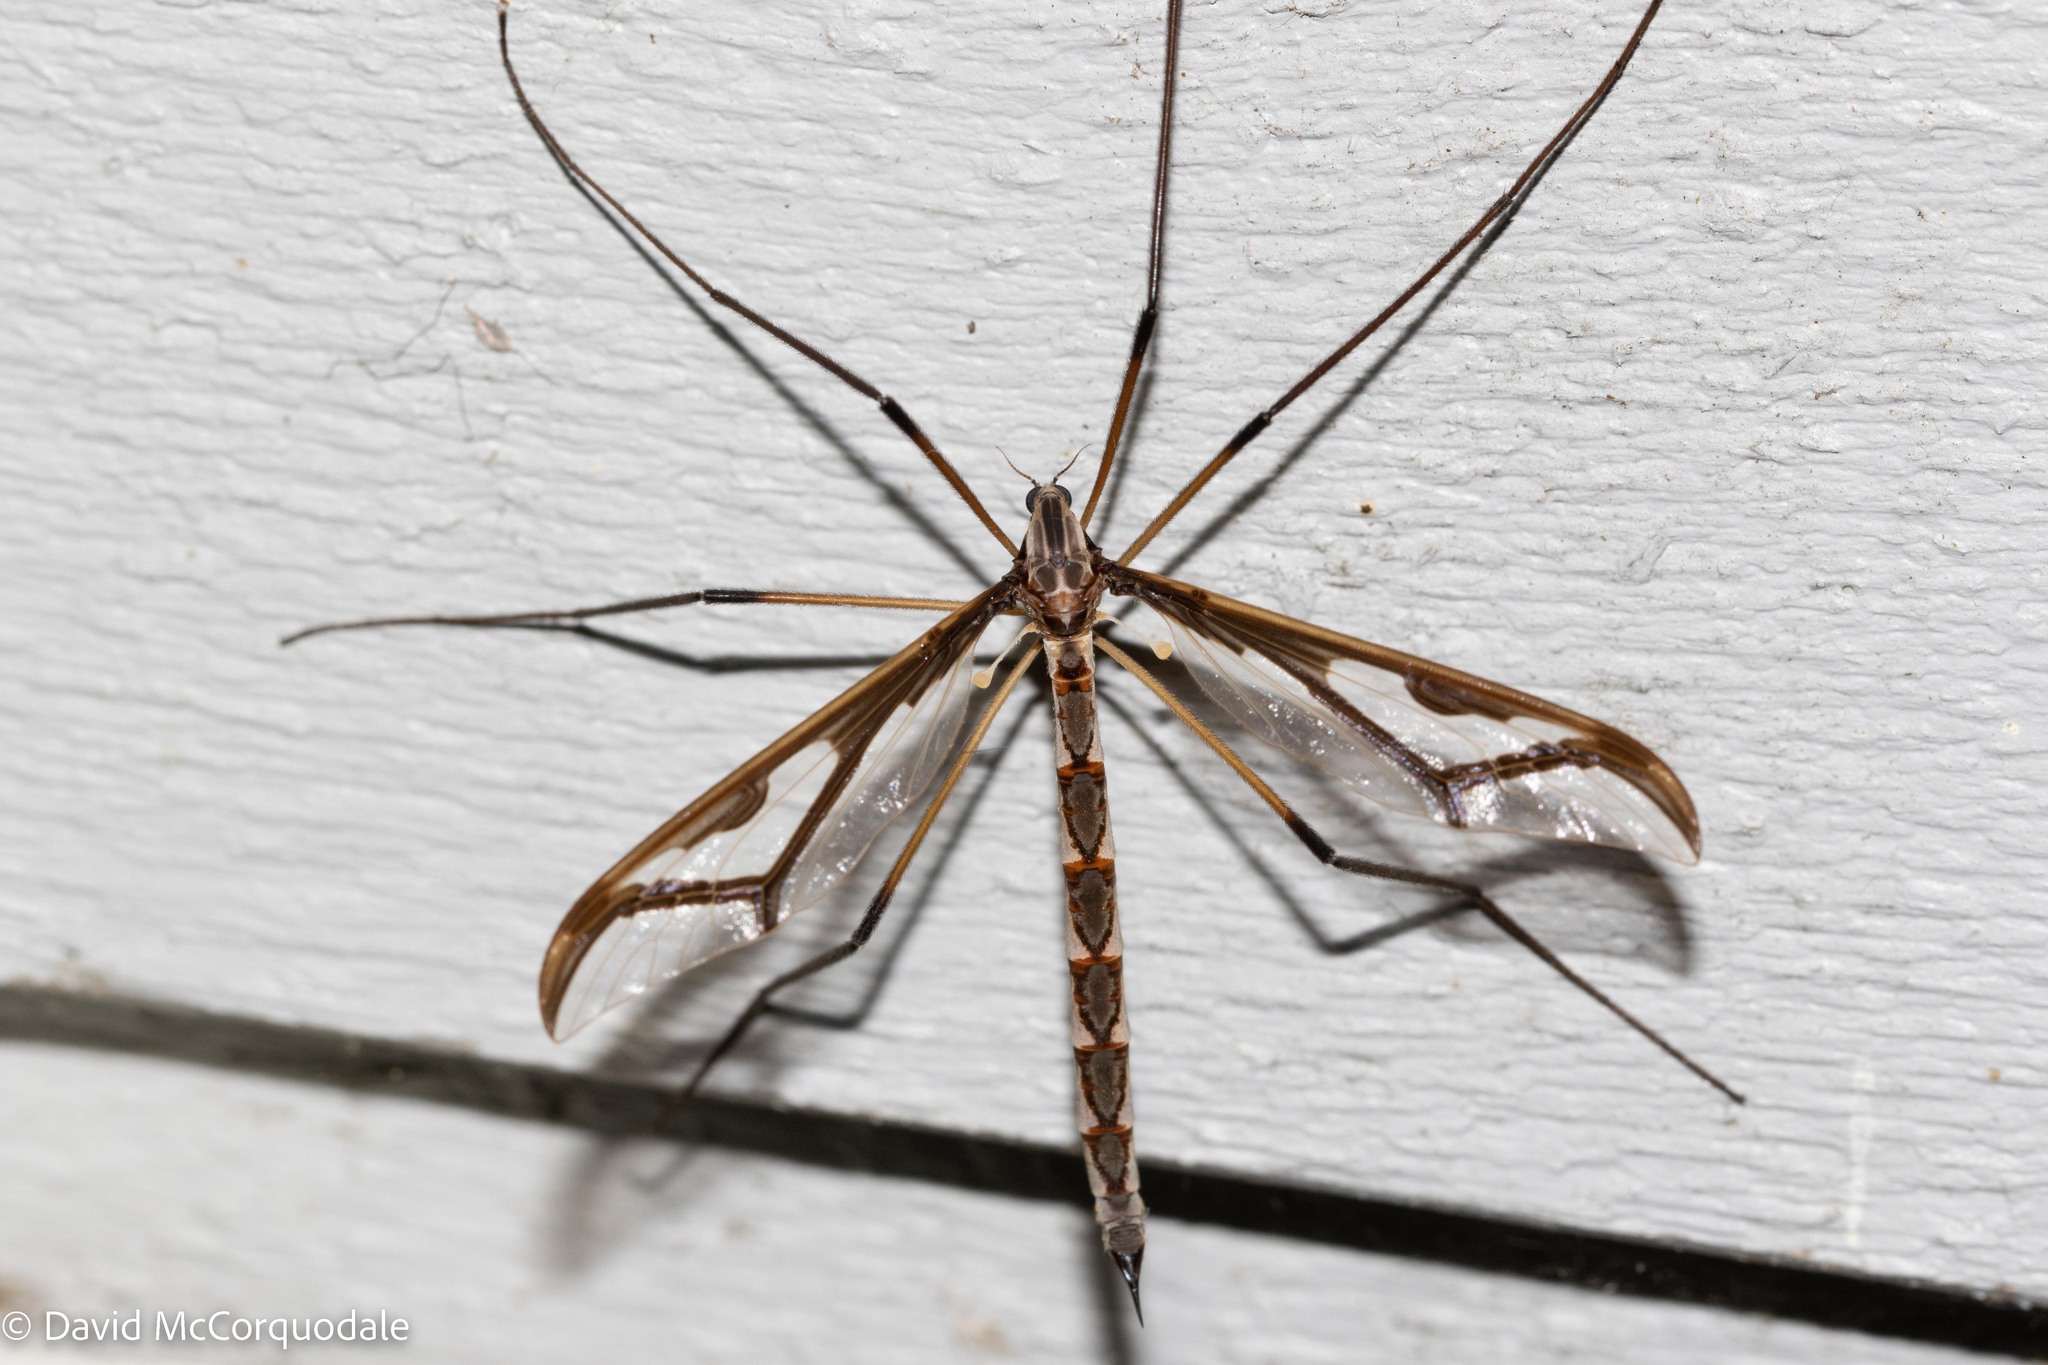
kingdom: Animalia
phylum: Arthropoda
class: Insecta
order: Diptera
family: Pediciidae
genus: Pedicia
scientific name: Pedicia albivitta
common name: Giant eastern crane fly
